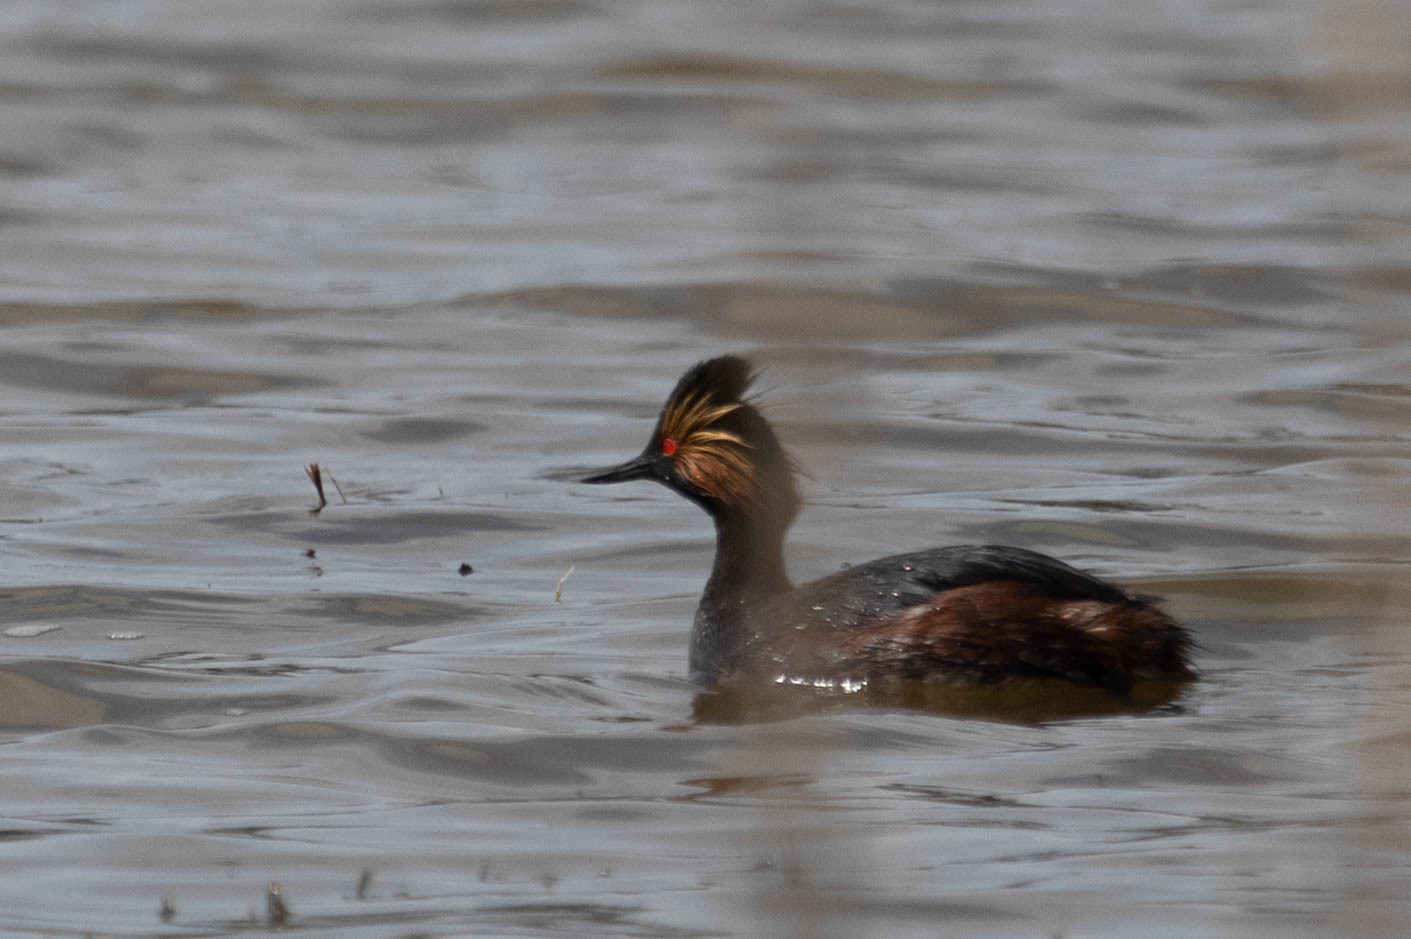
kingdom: Animalia
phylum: Chordata
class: Aves
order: Podicipediformes
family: Podicipedidae
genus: Podiceps
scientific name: Podiceps nigricollis
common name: Black-necked grebe
